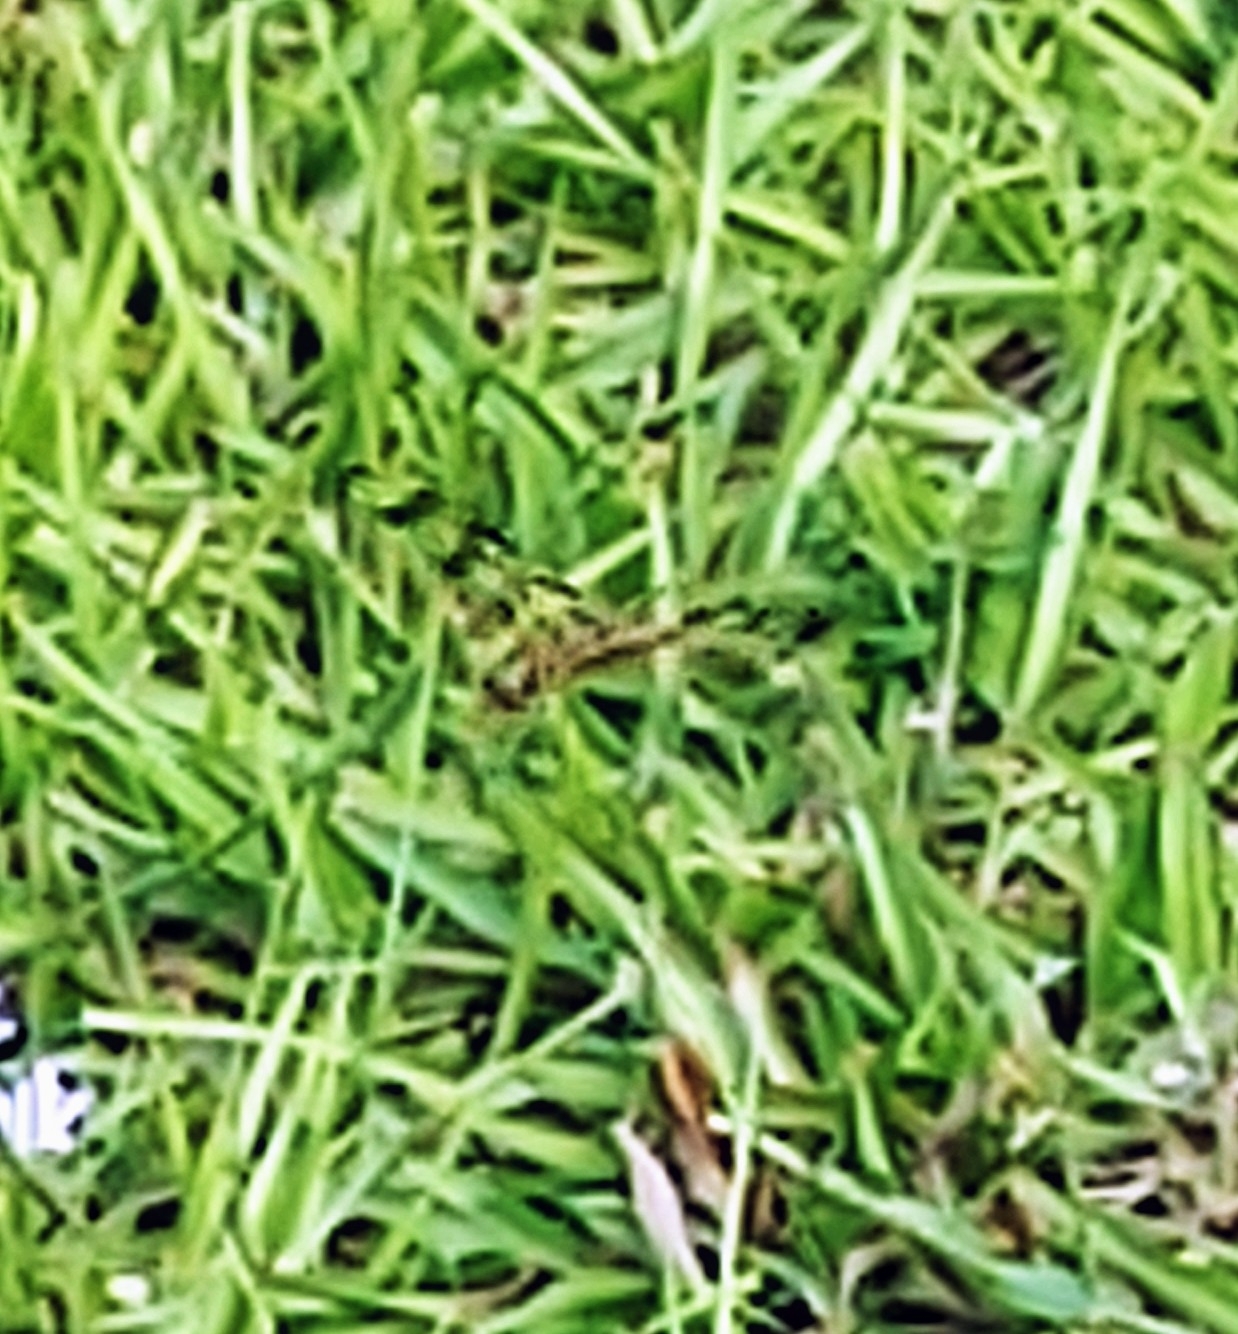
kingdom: Animalia
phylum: Arthropoda
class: Insecta
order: Odonata
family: Libellulidae
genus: Celithemis
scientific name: Celithemis eponina
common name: Halloween pennant
